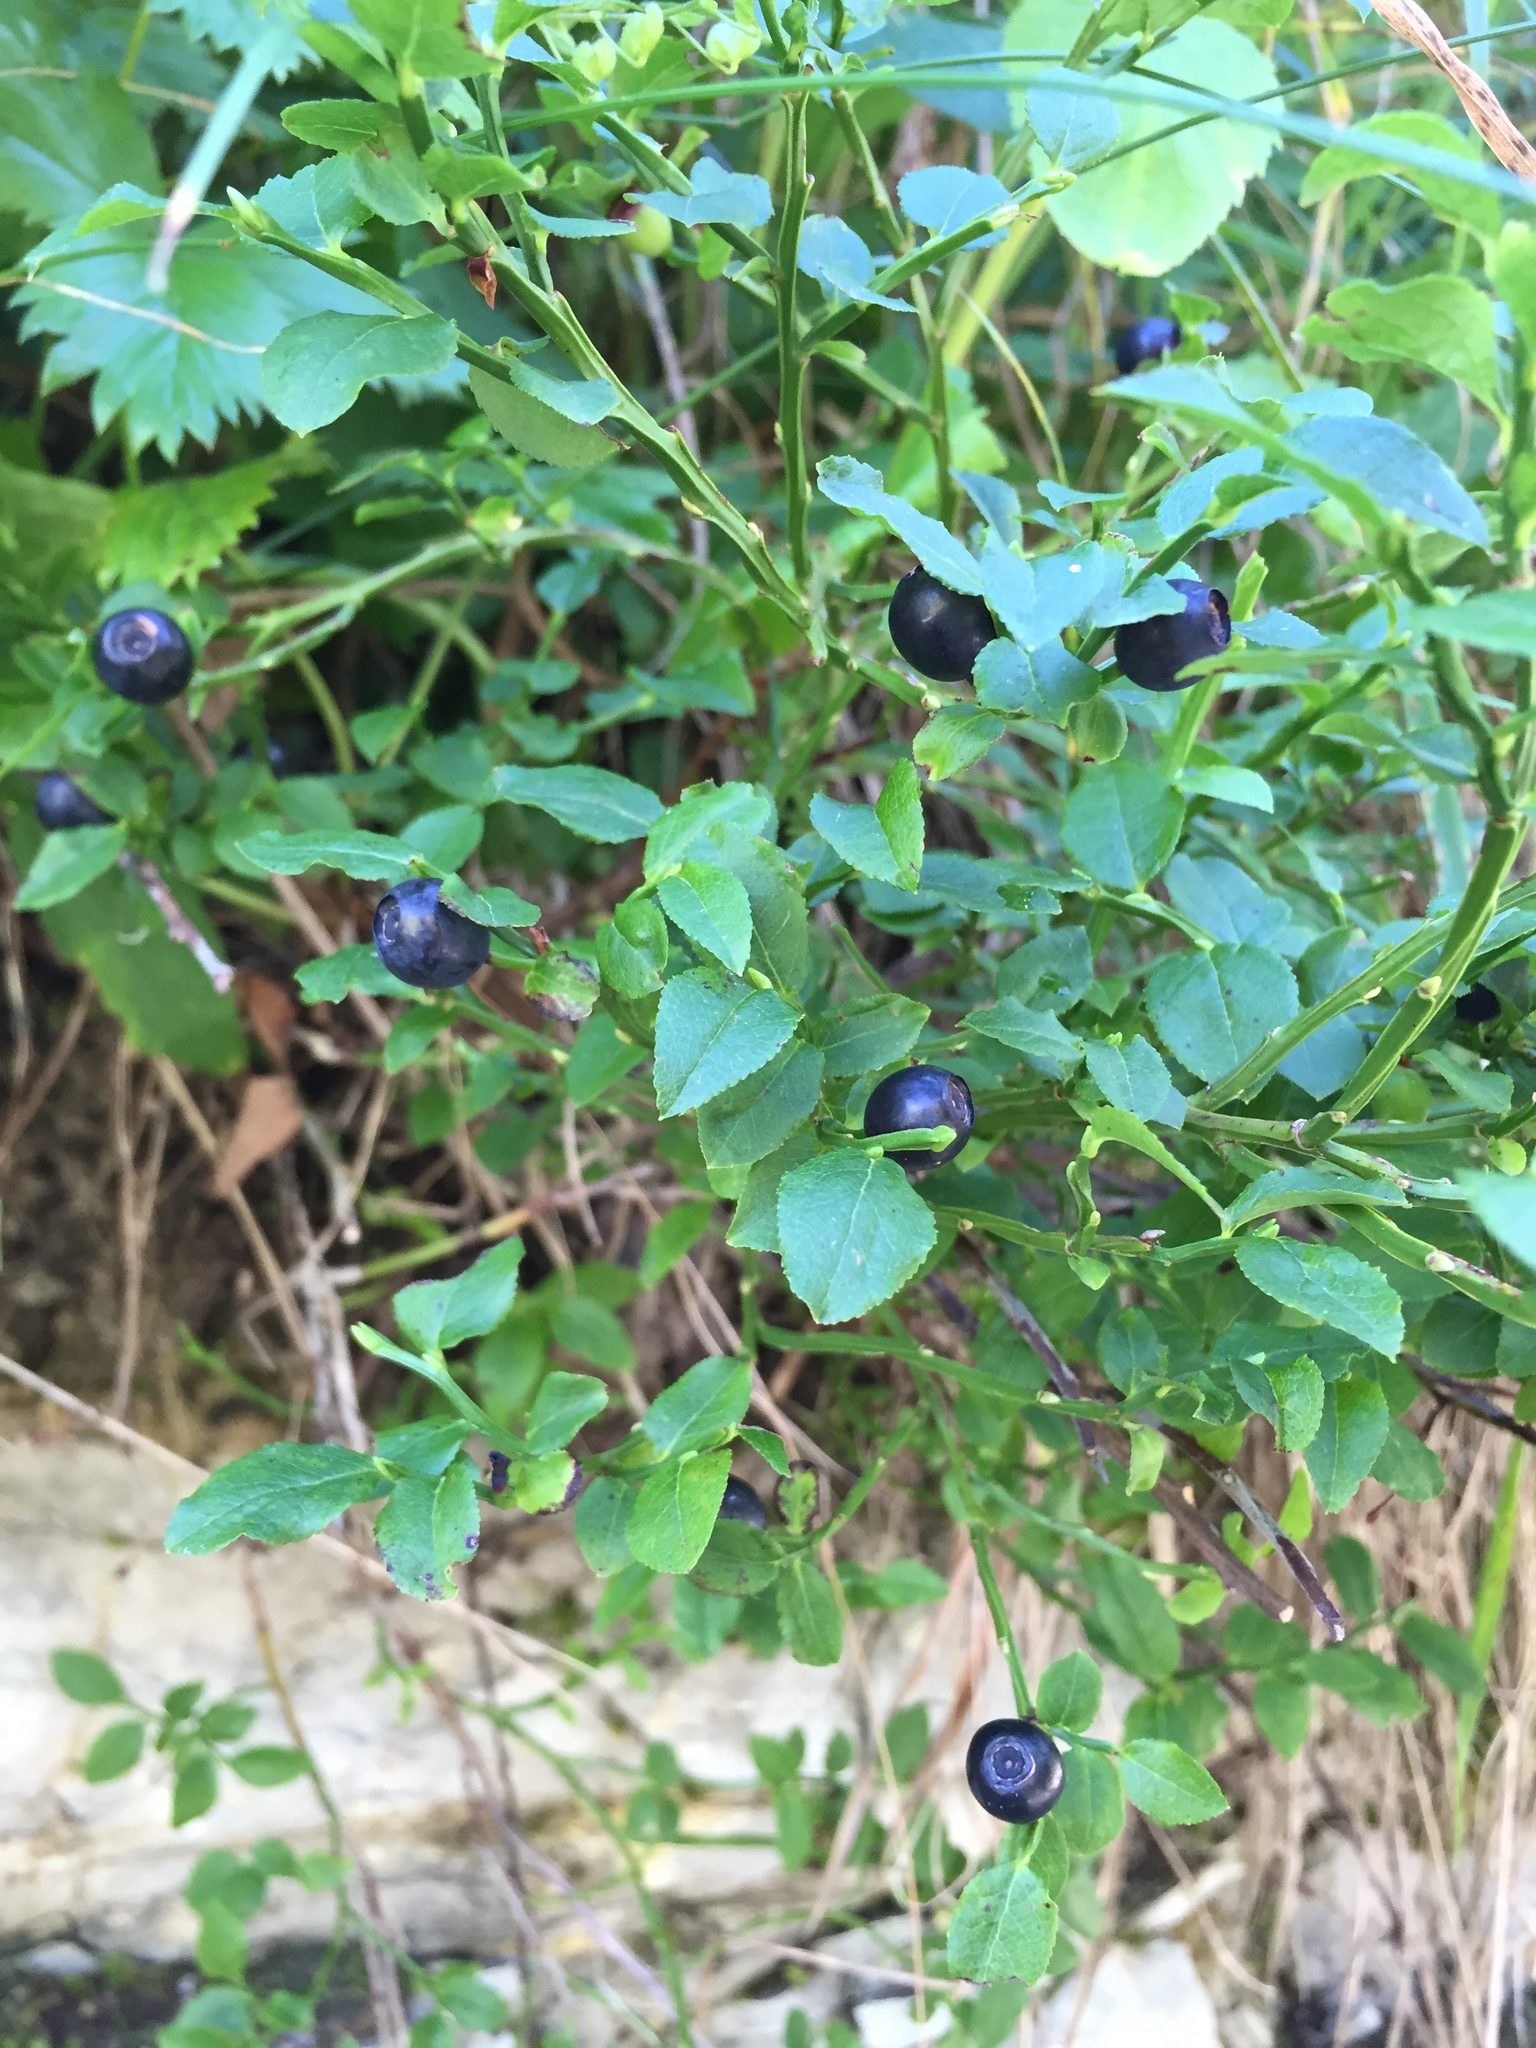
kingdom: Plantae
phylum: Tracheophyta
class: Magnoliopsida
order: Ericales
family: Ericaceae
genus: Vaccinium
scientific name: Vaccinium myrtillus
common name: Bilberry
